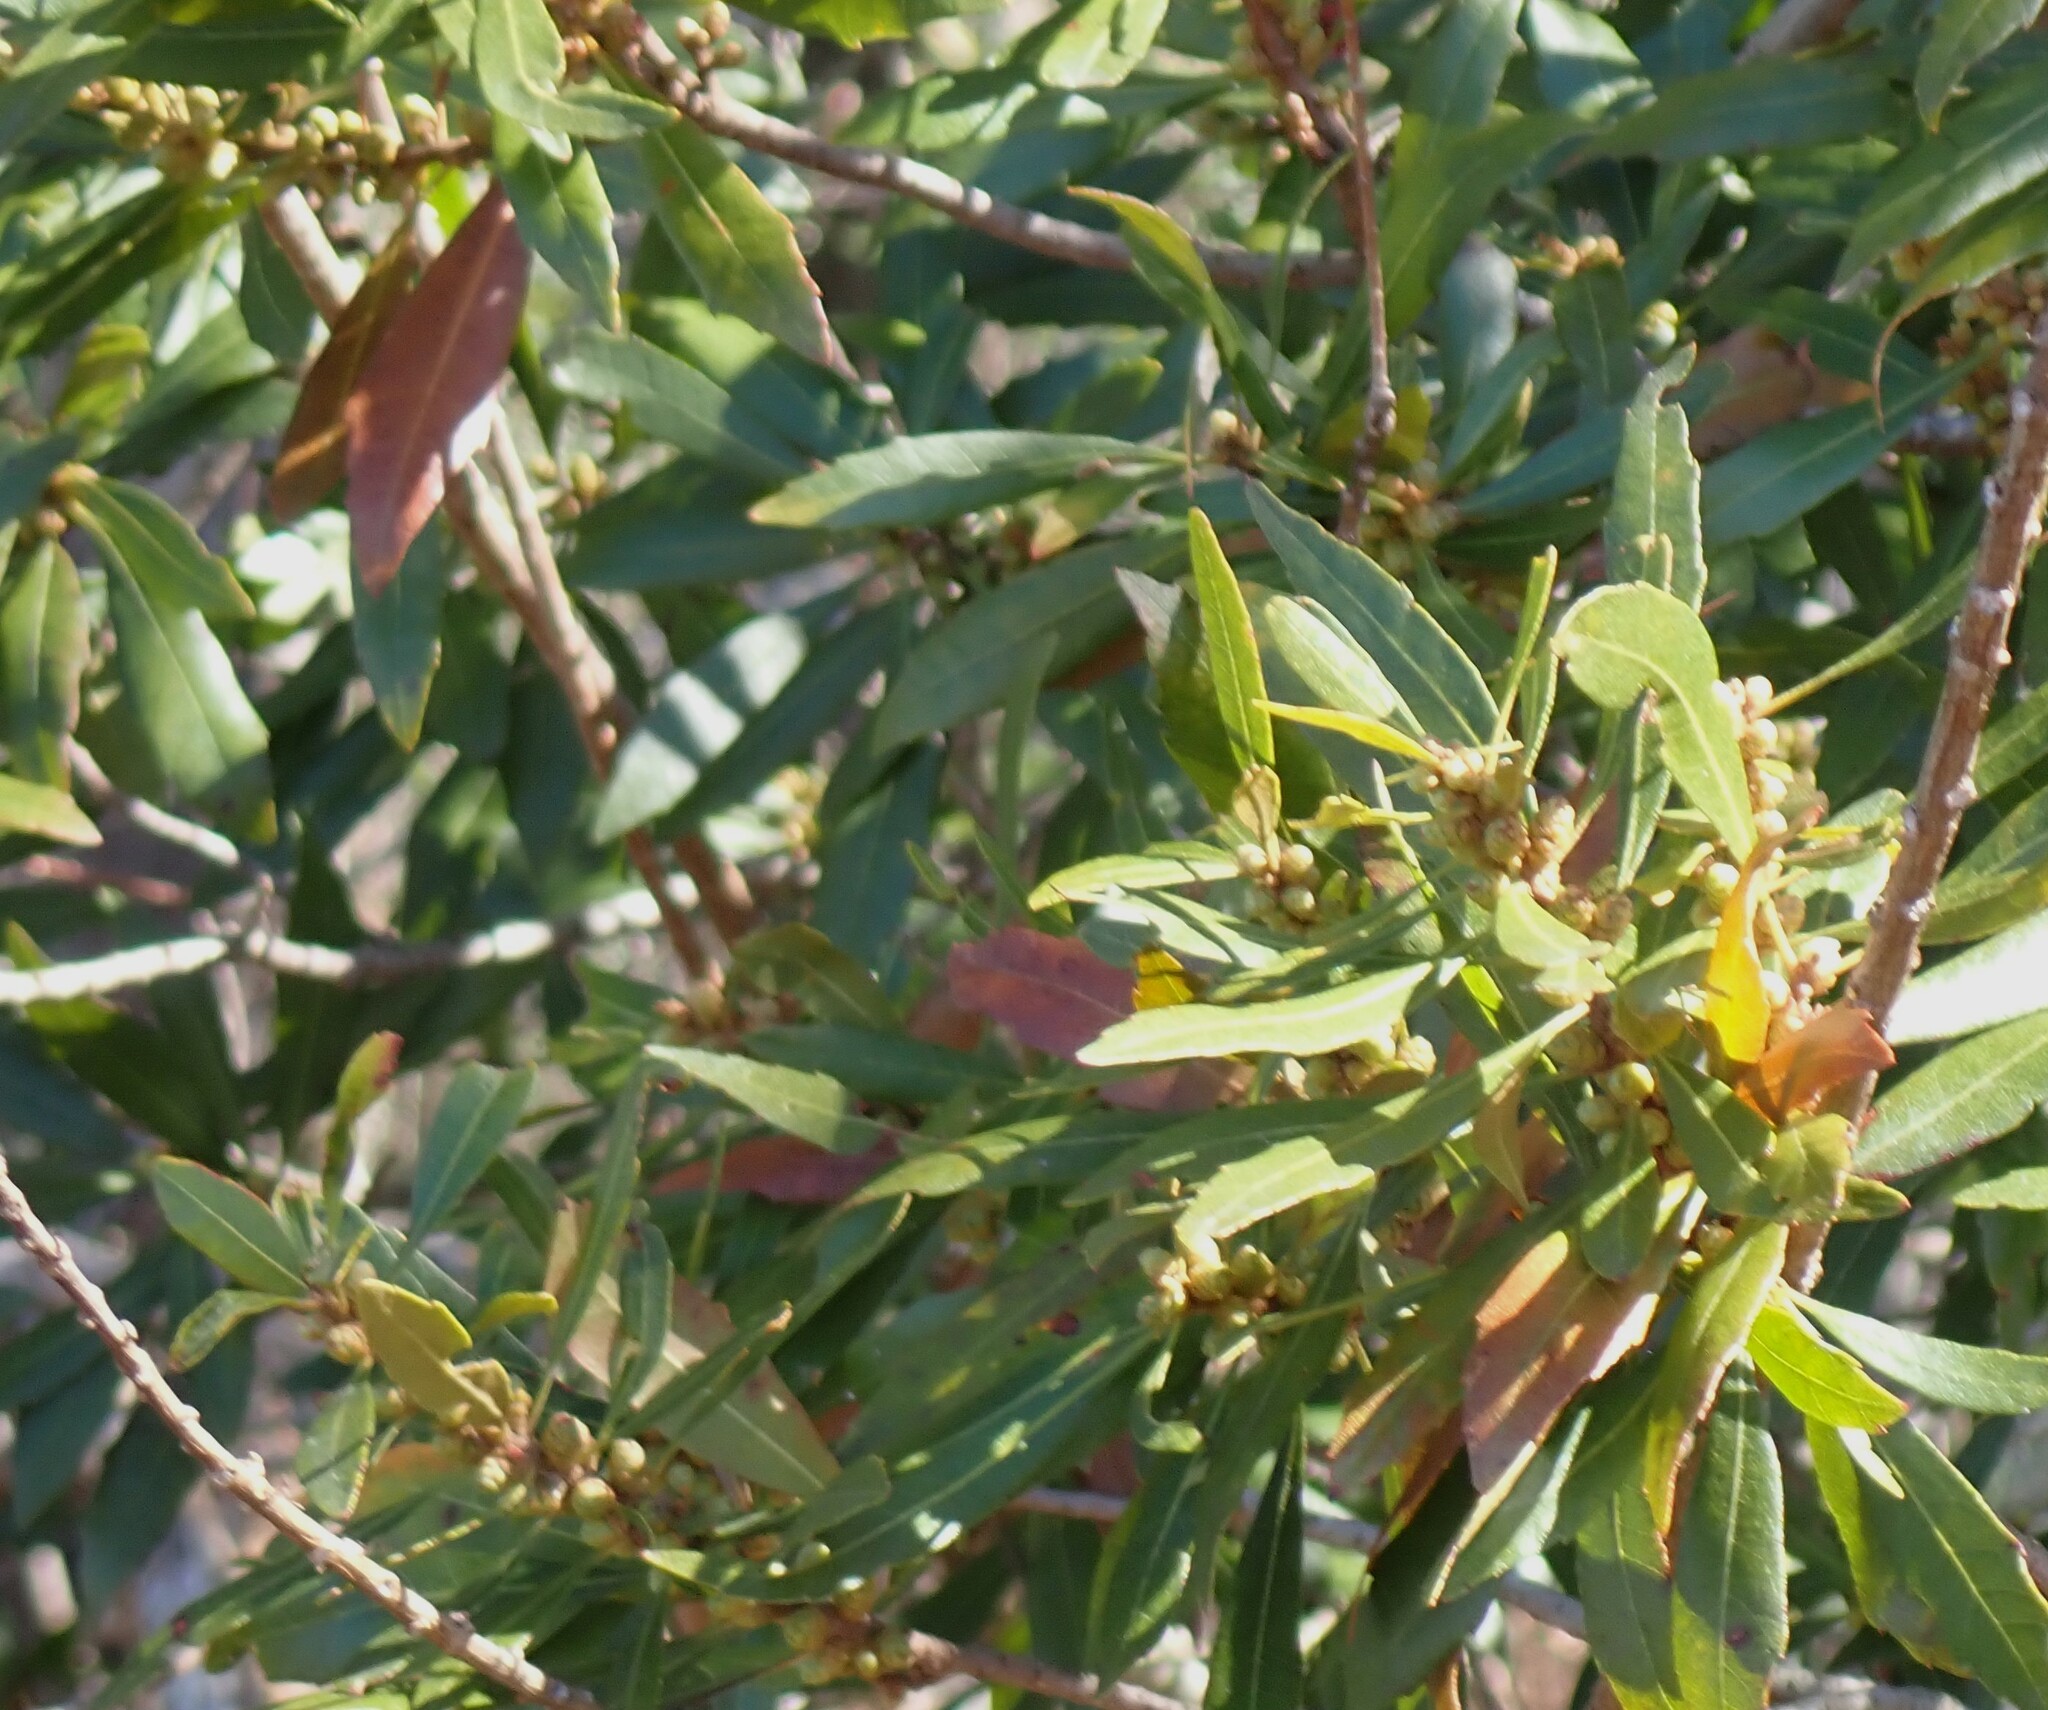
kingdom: Plantae
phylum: Tracheophyta
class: Magnoliopsida
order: Fagales
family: Myricaceae
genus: Morella
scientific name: Morella cerifera
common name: Wax myrtle
